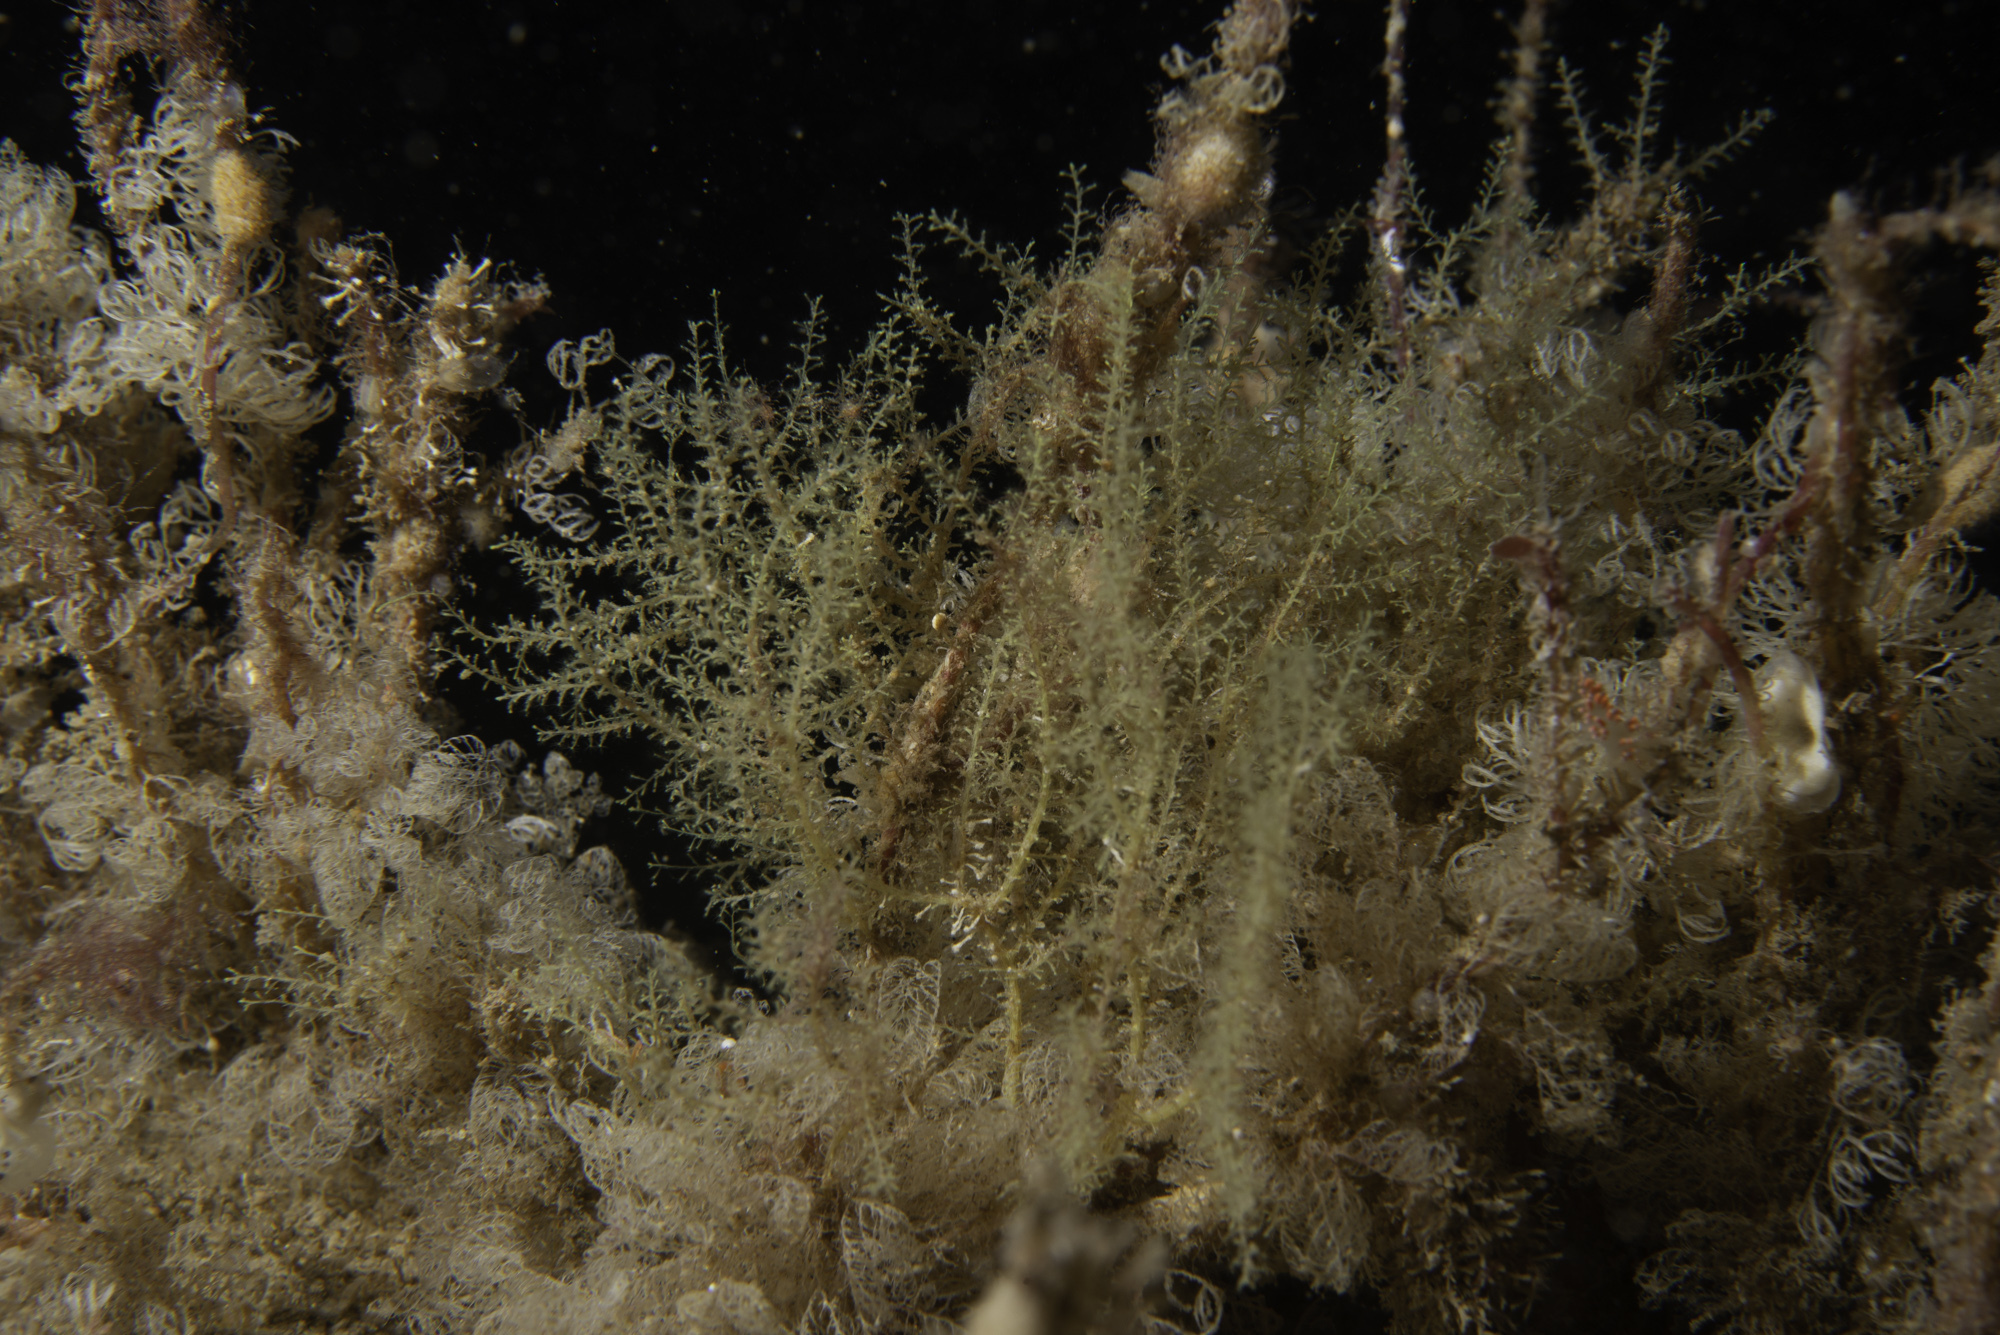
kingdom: Animalia
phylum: Cnidaria
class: Hydrozoa
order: Leptothecata
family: Lafoeidae
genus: Lafoea
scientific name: Lafoea dumosa
